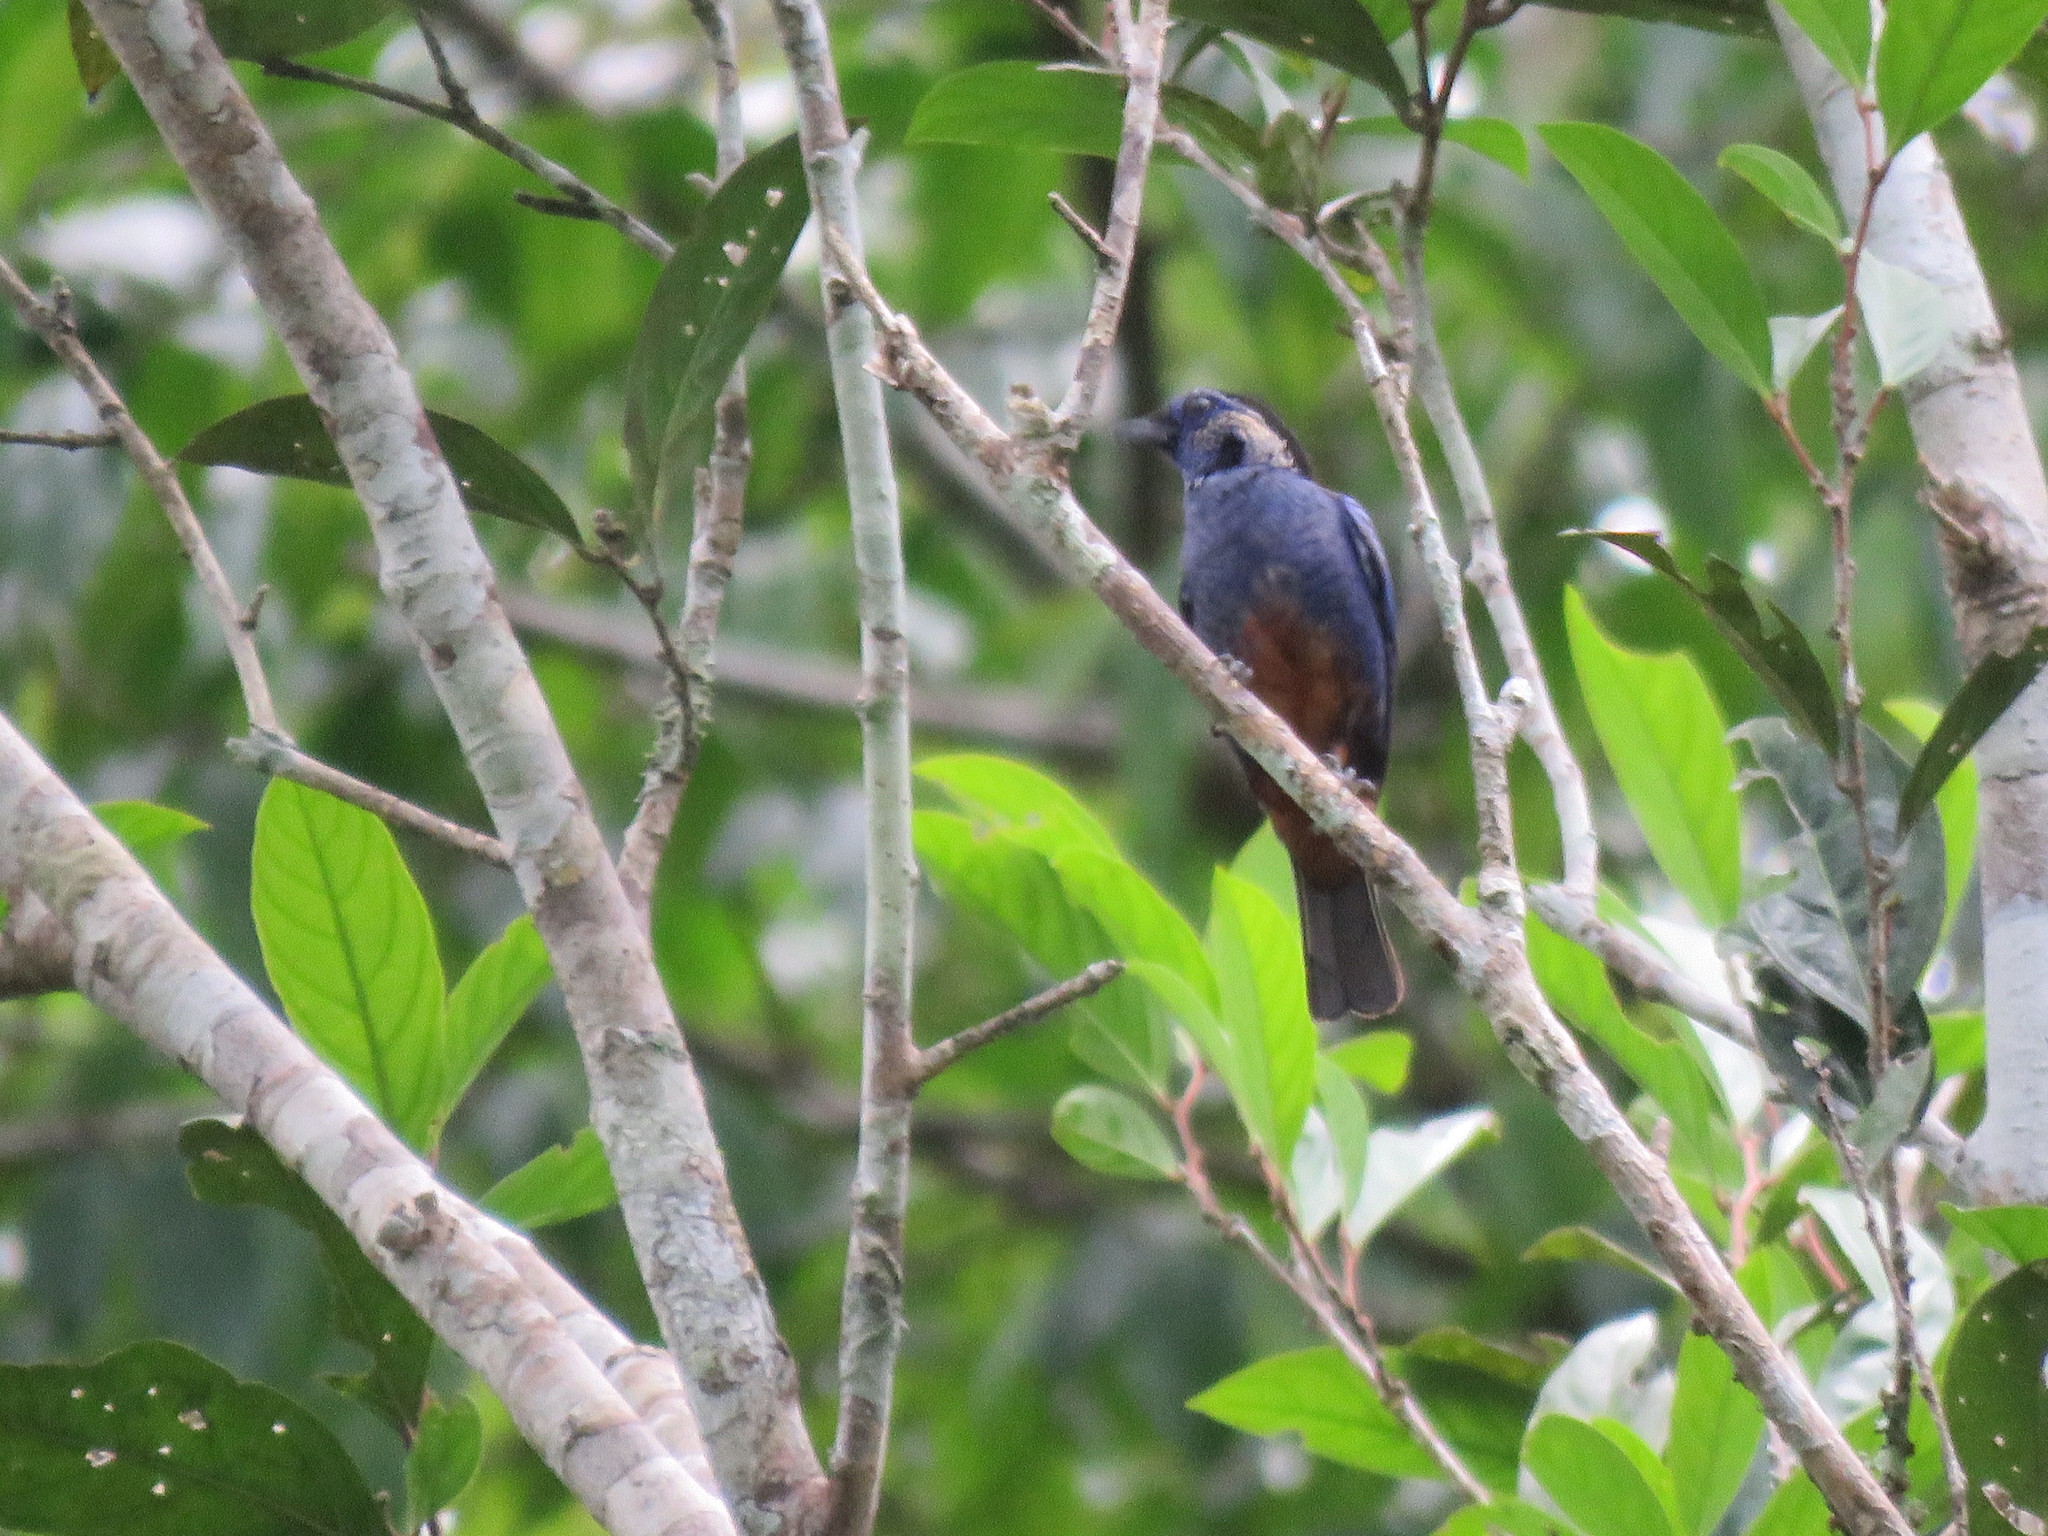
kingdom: Animalia
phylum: Chordata
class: Aves
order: Passeriformes
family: Thraupidae
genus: Tangara
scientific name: Tangara velia
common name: Opal-rumped tanager
